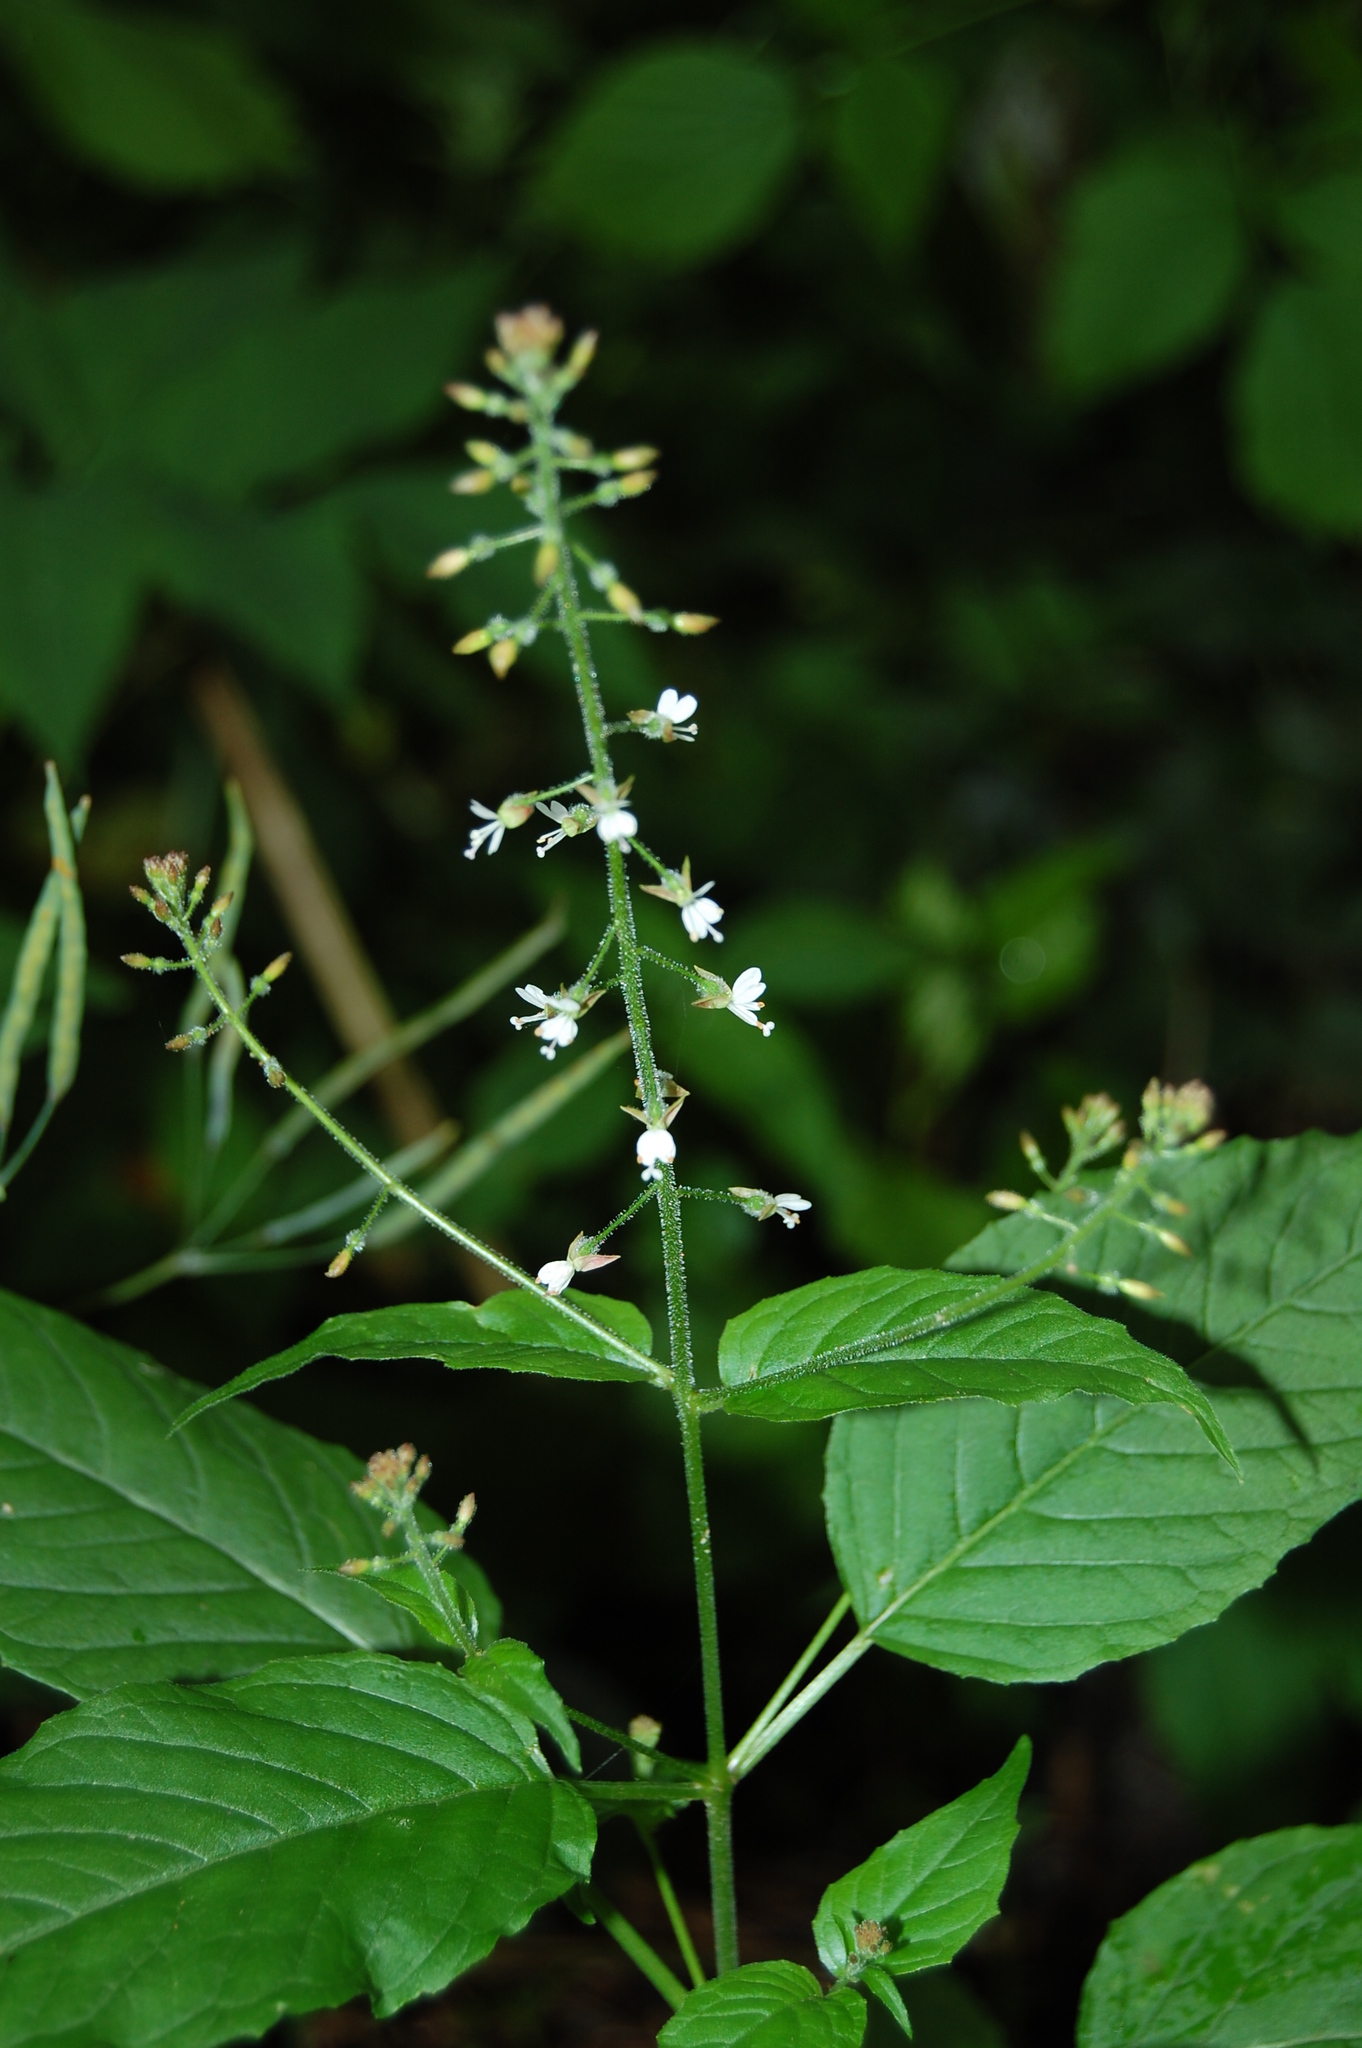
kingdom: Plantae
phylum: Tracheophyta
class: Magnoliopsida
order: Myrtales
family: Onagraceae
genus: Circaea
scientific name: Circaea lutetiana
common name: Enchanter's-nightshade
